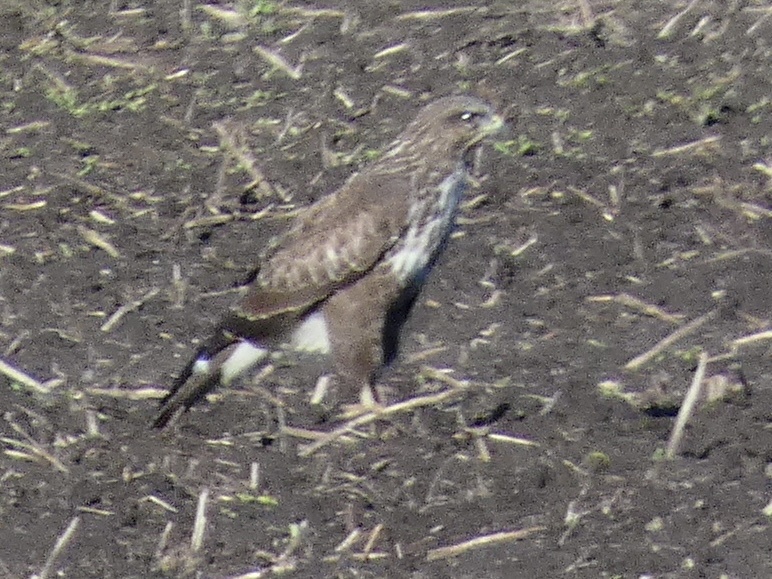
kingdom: Animalia
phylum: Chordata
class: Aves
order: Accipitriformes
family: Accipitridae
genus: Buteo
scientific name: Buteo buteo
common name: Common buzzard
